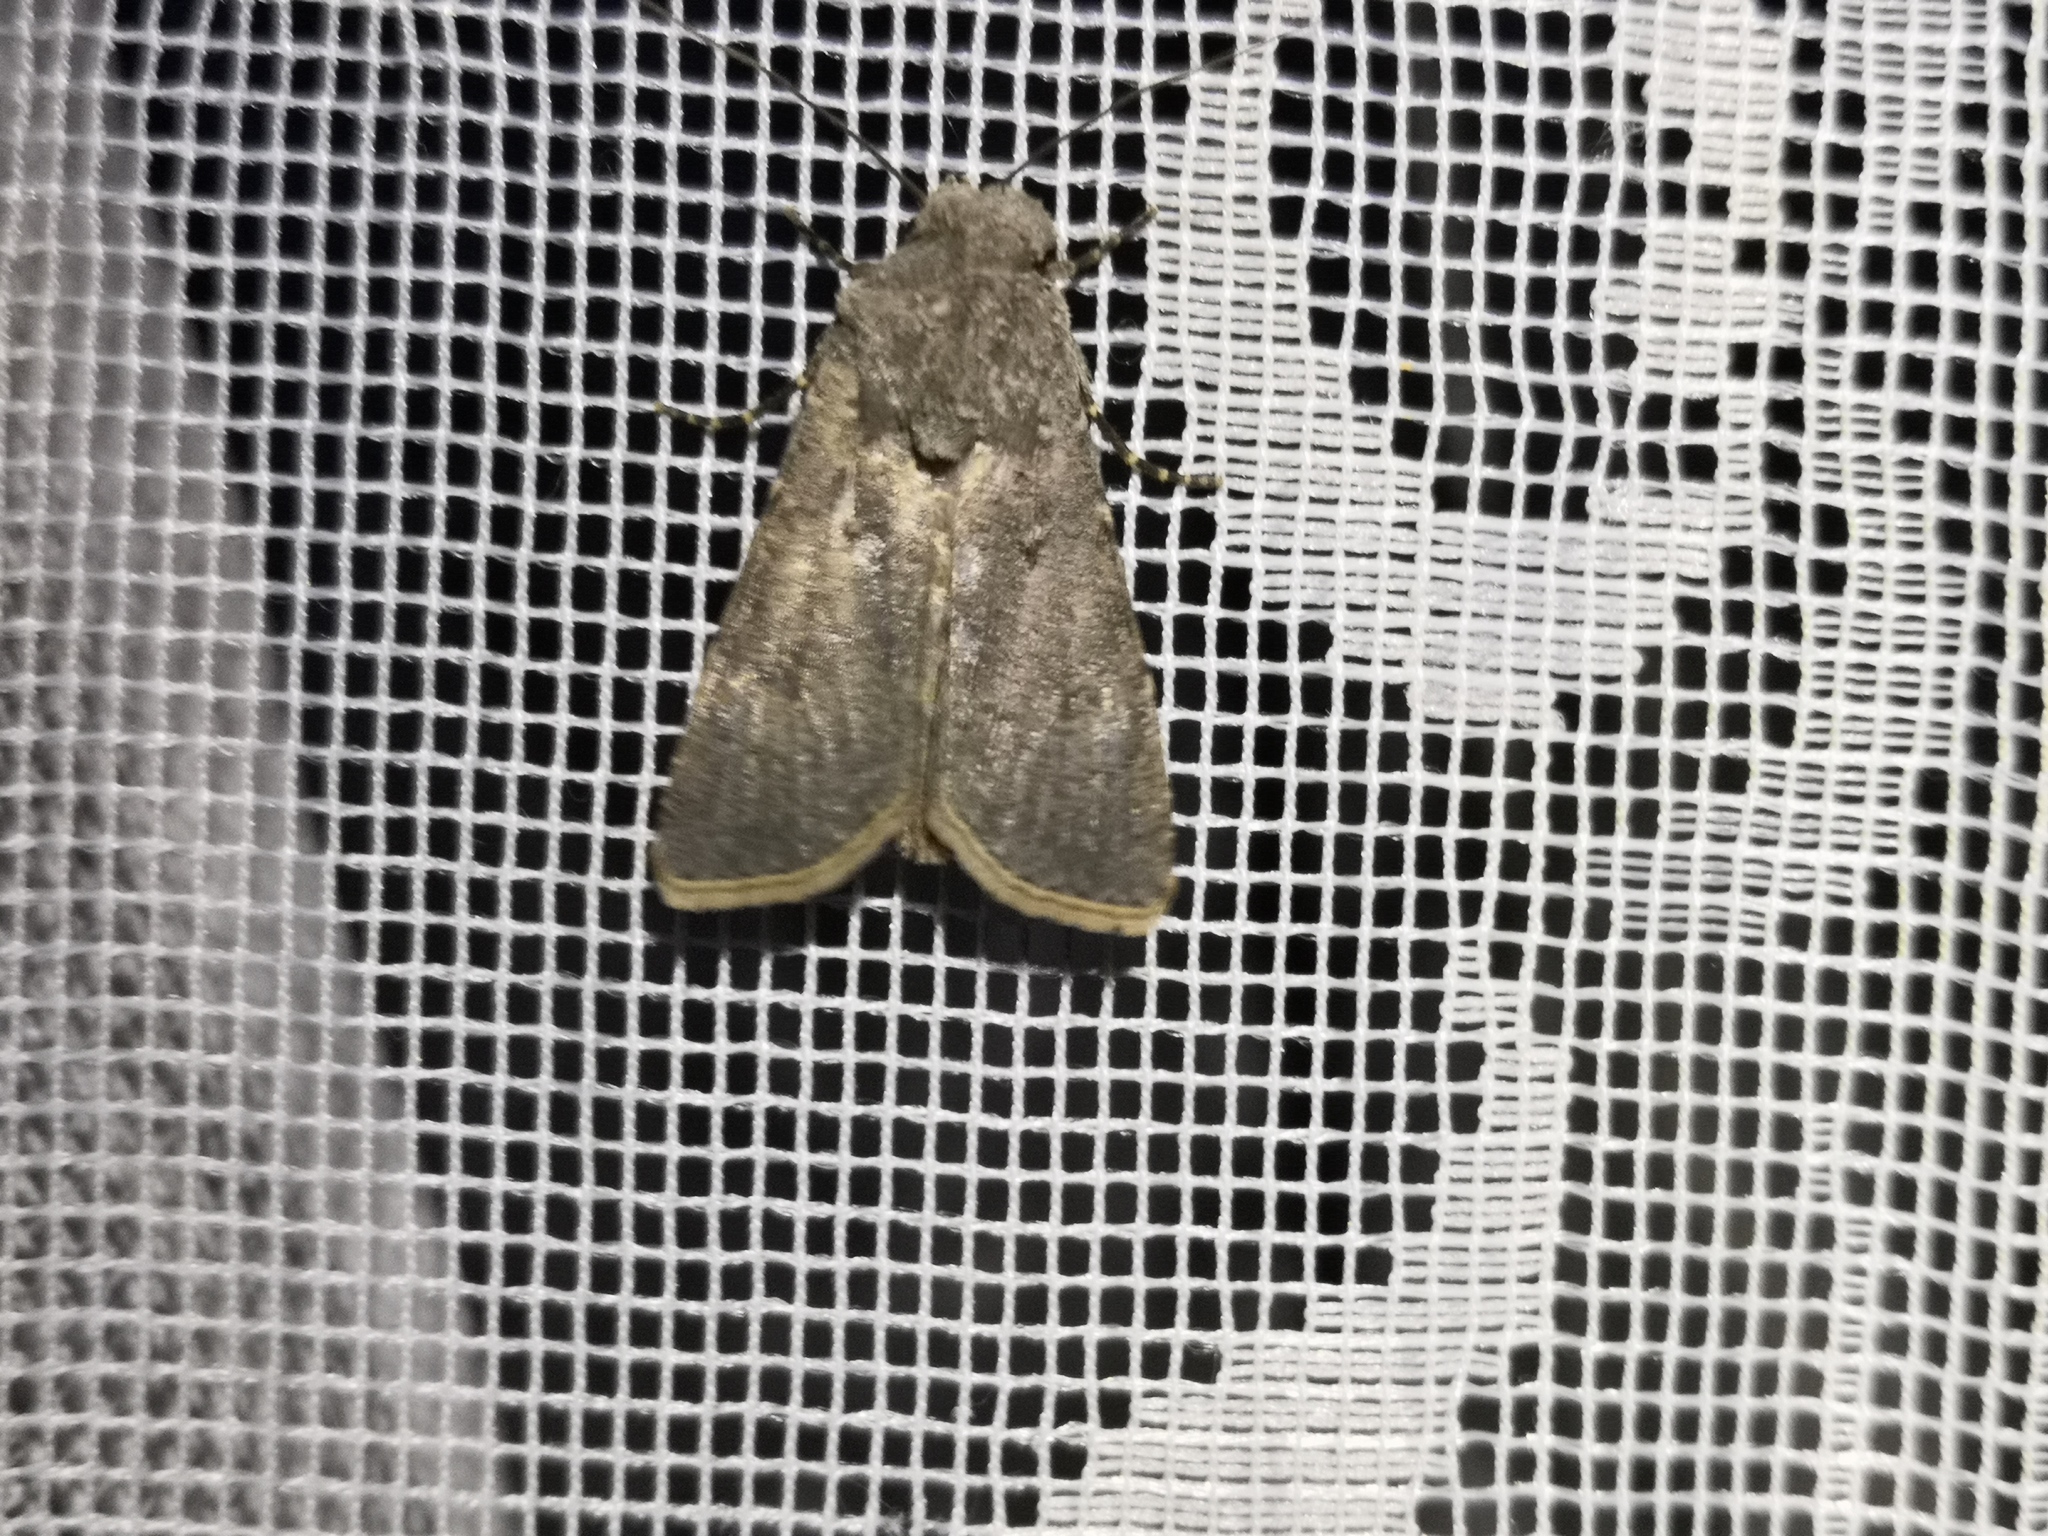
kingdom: Animalia
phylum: Arthropoda
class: Insecta
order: Lepidoptera
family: Noctuidae
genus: Agrotis
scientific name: Agrotis segetum
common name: Turnip moth
